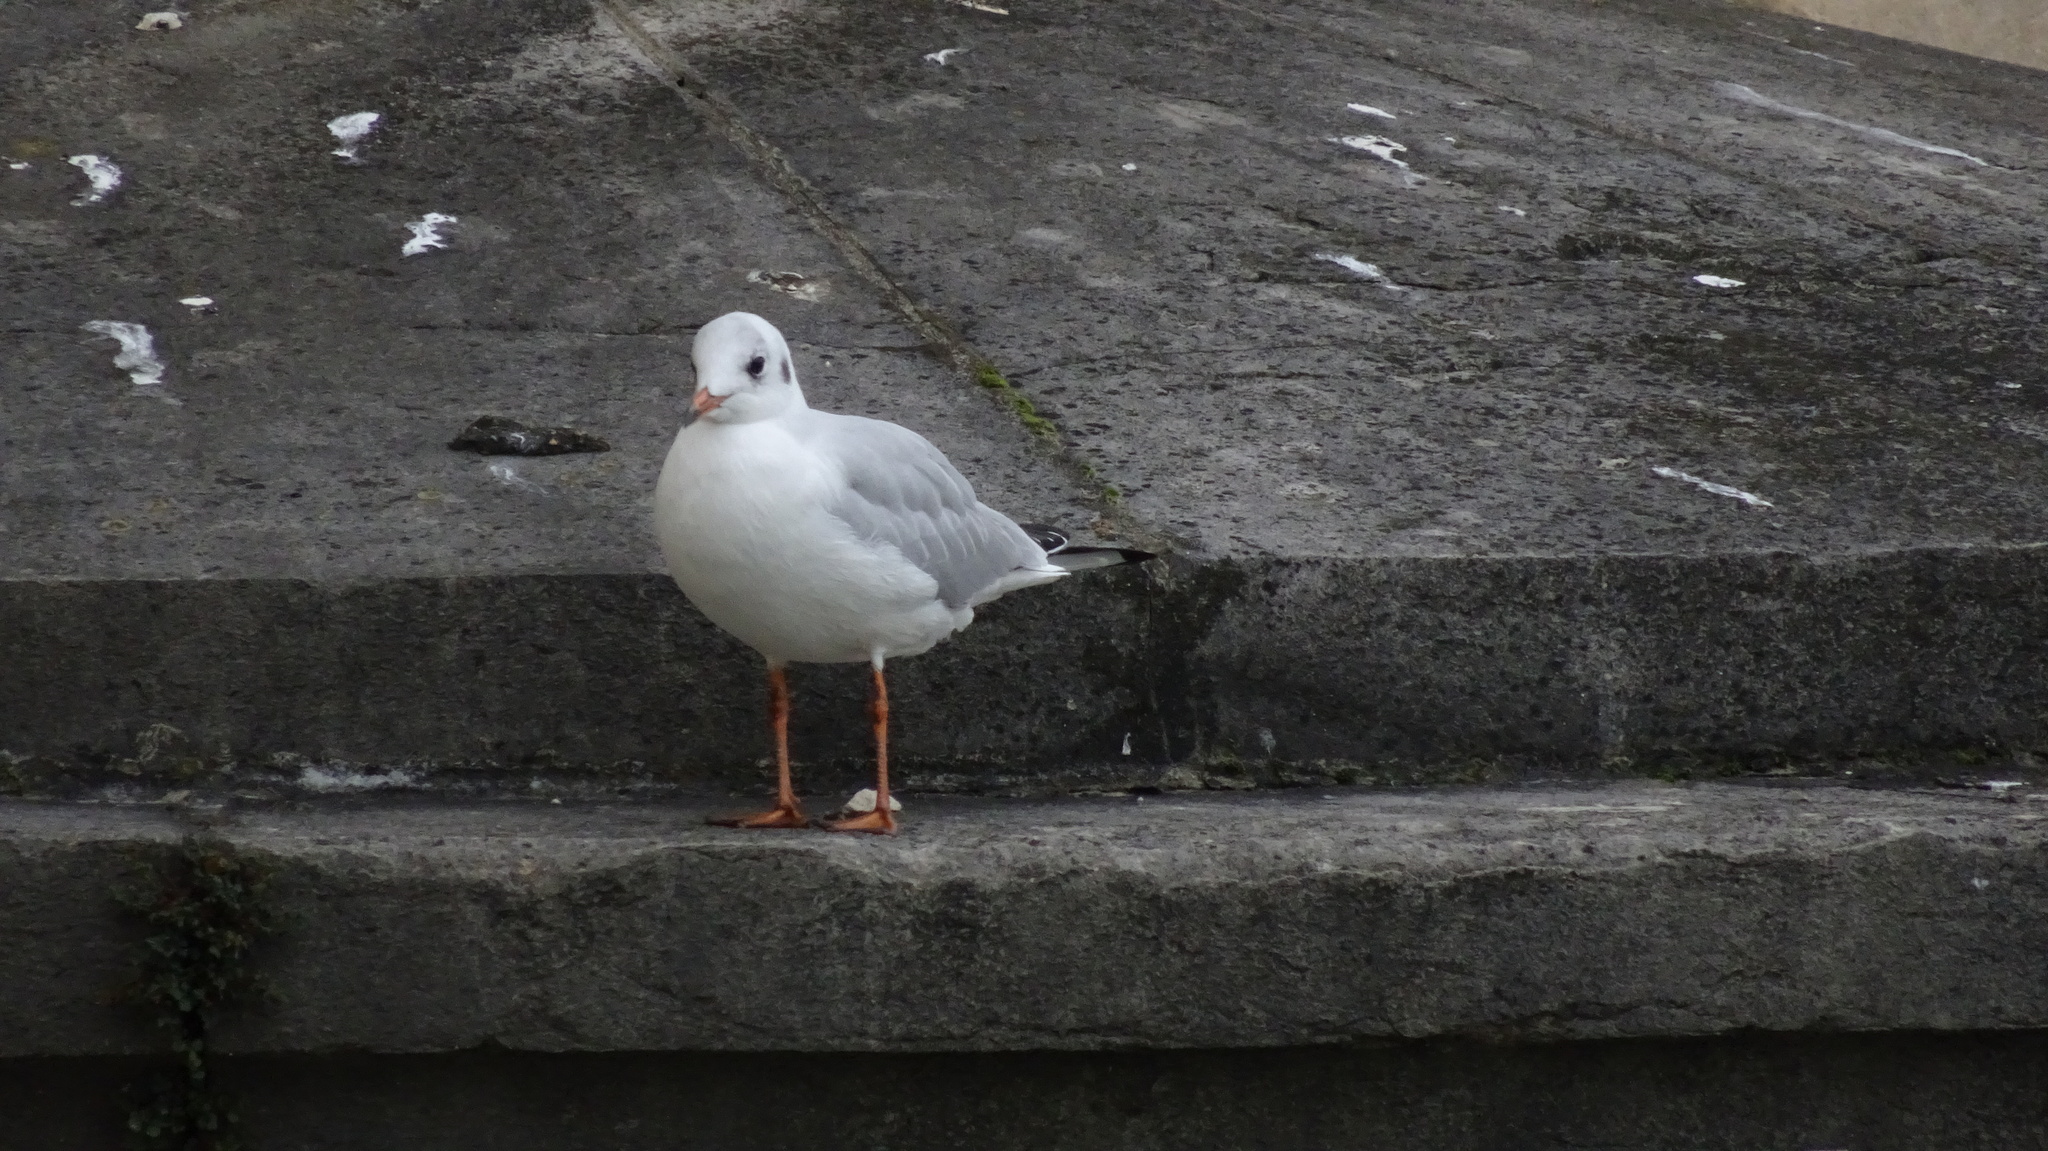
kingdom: Animalia
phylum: Chordata
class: Aves
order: Charadriiformes
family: Laridae
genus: Chroicocephalus
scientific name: Chroicocephalus ridibundus
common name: Black-headed gull
